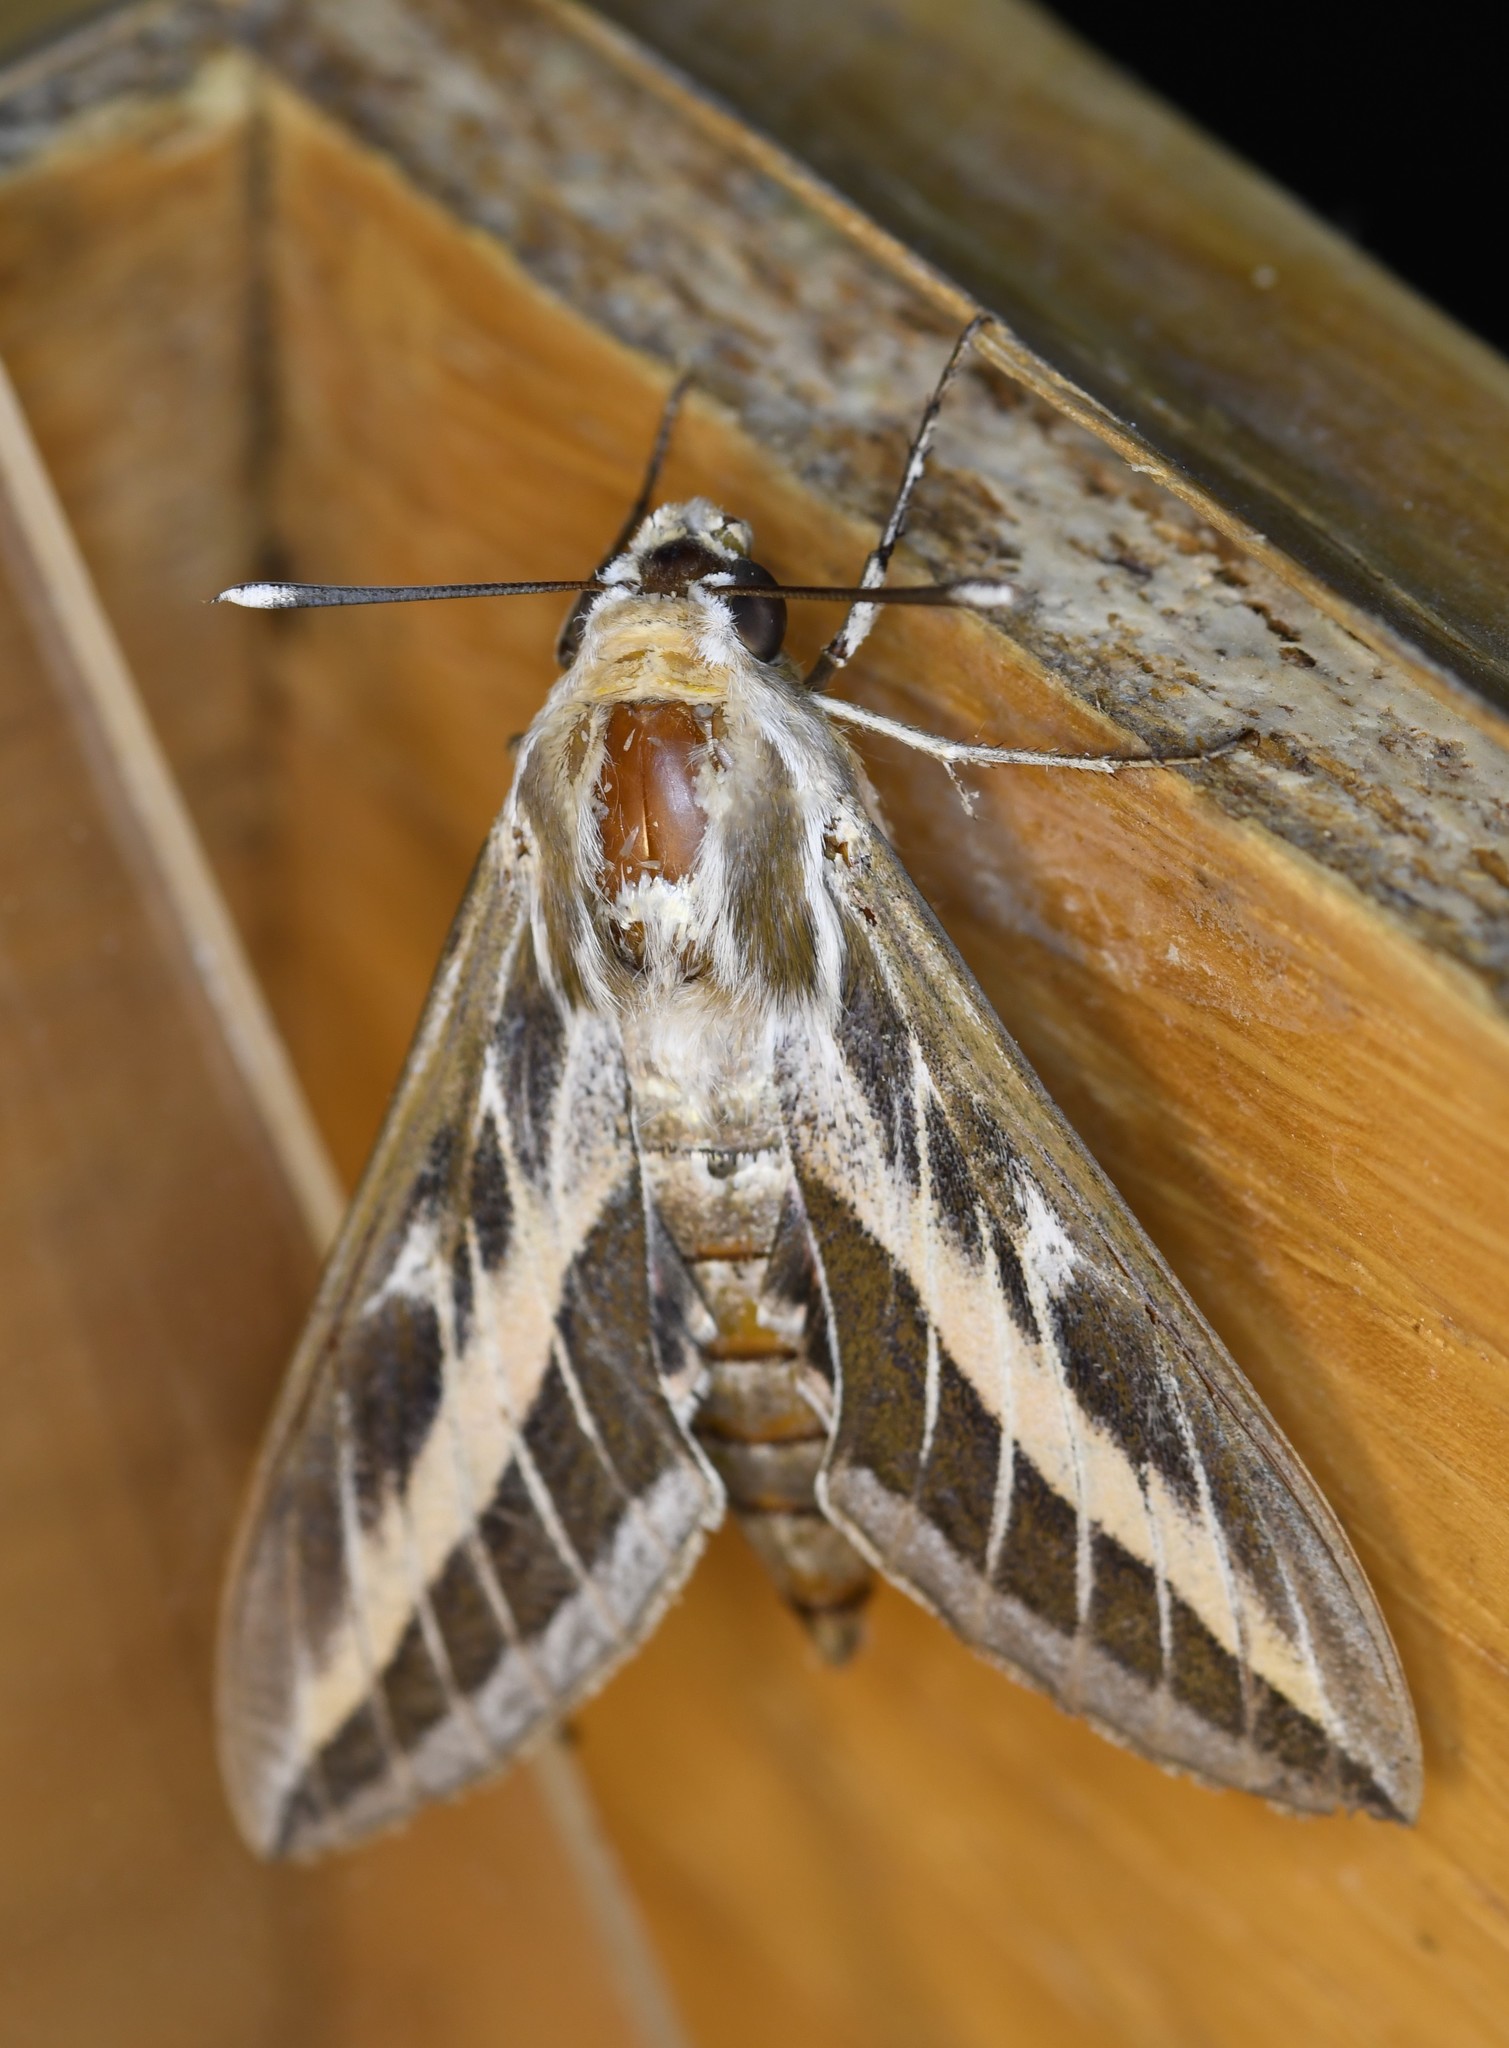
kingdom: Animalia
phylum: Arthropoda
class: Insecta
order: Lepidoptera
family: Sphingidae
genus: Hyles
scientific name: Hyles livornica
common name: Striped hawk-moth
